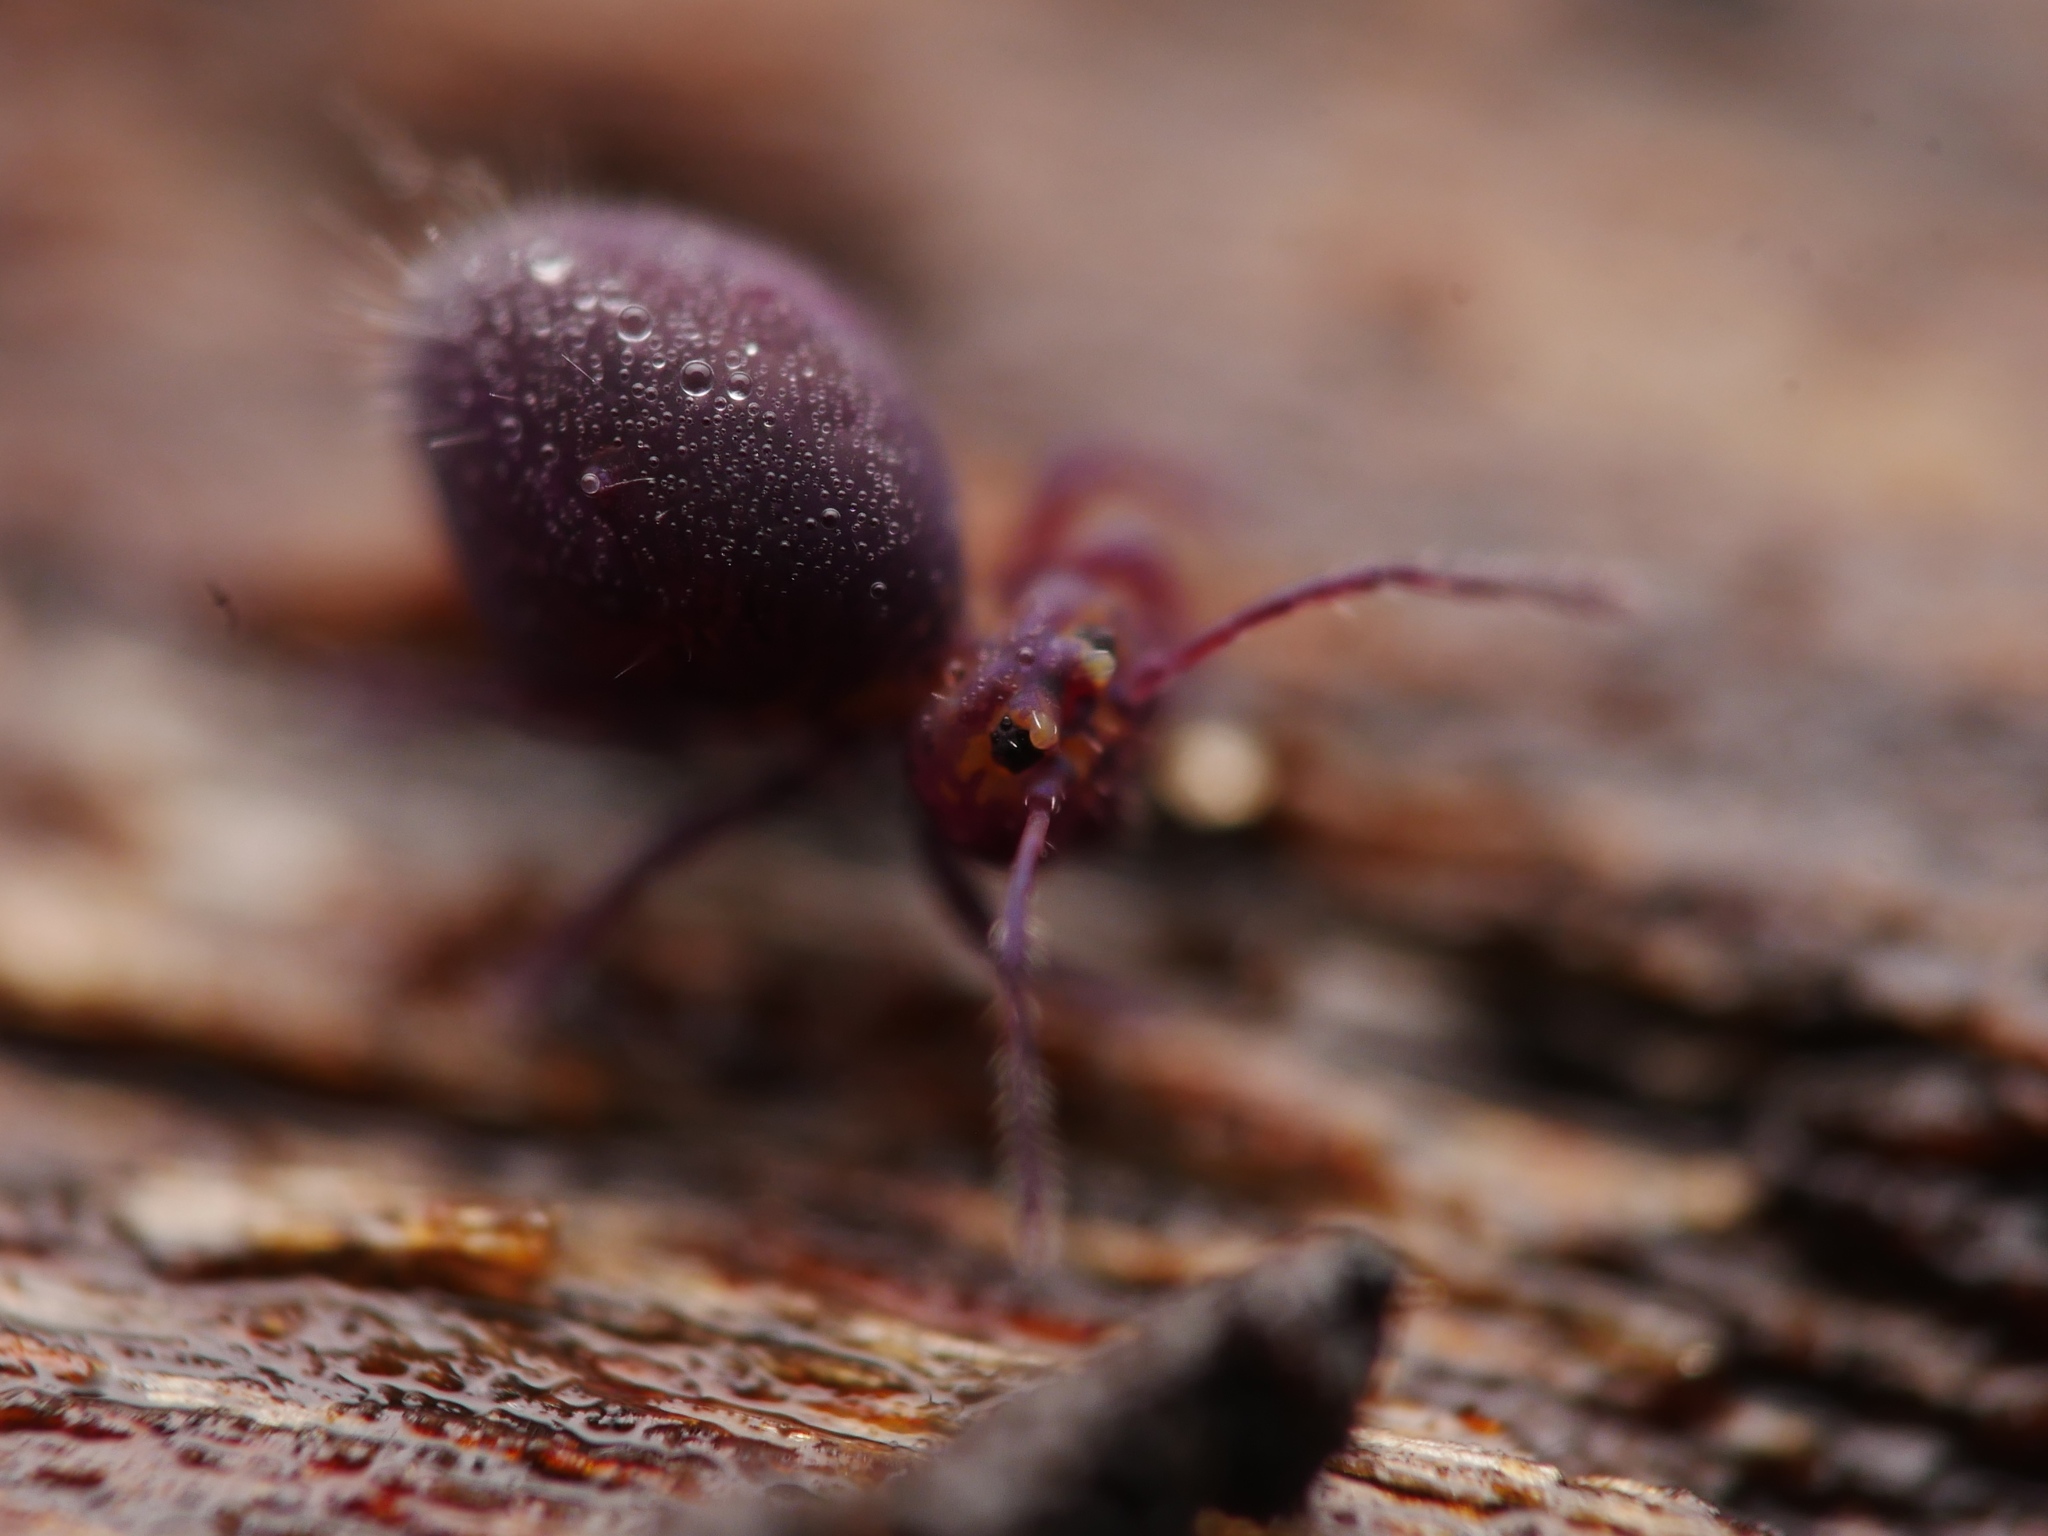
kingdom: Animalia
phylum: Arthropoda
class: Collembola
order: Symphypleona
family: Dicyrtomidae
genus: Dicyrtoma
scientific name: Dicyrtoma fusca
